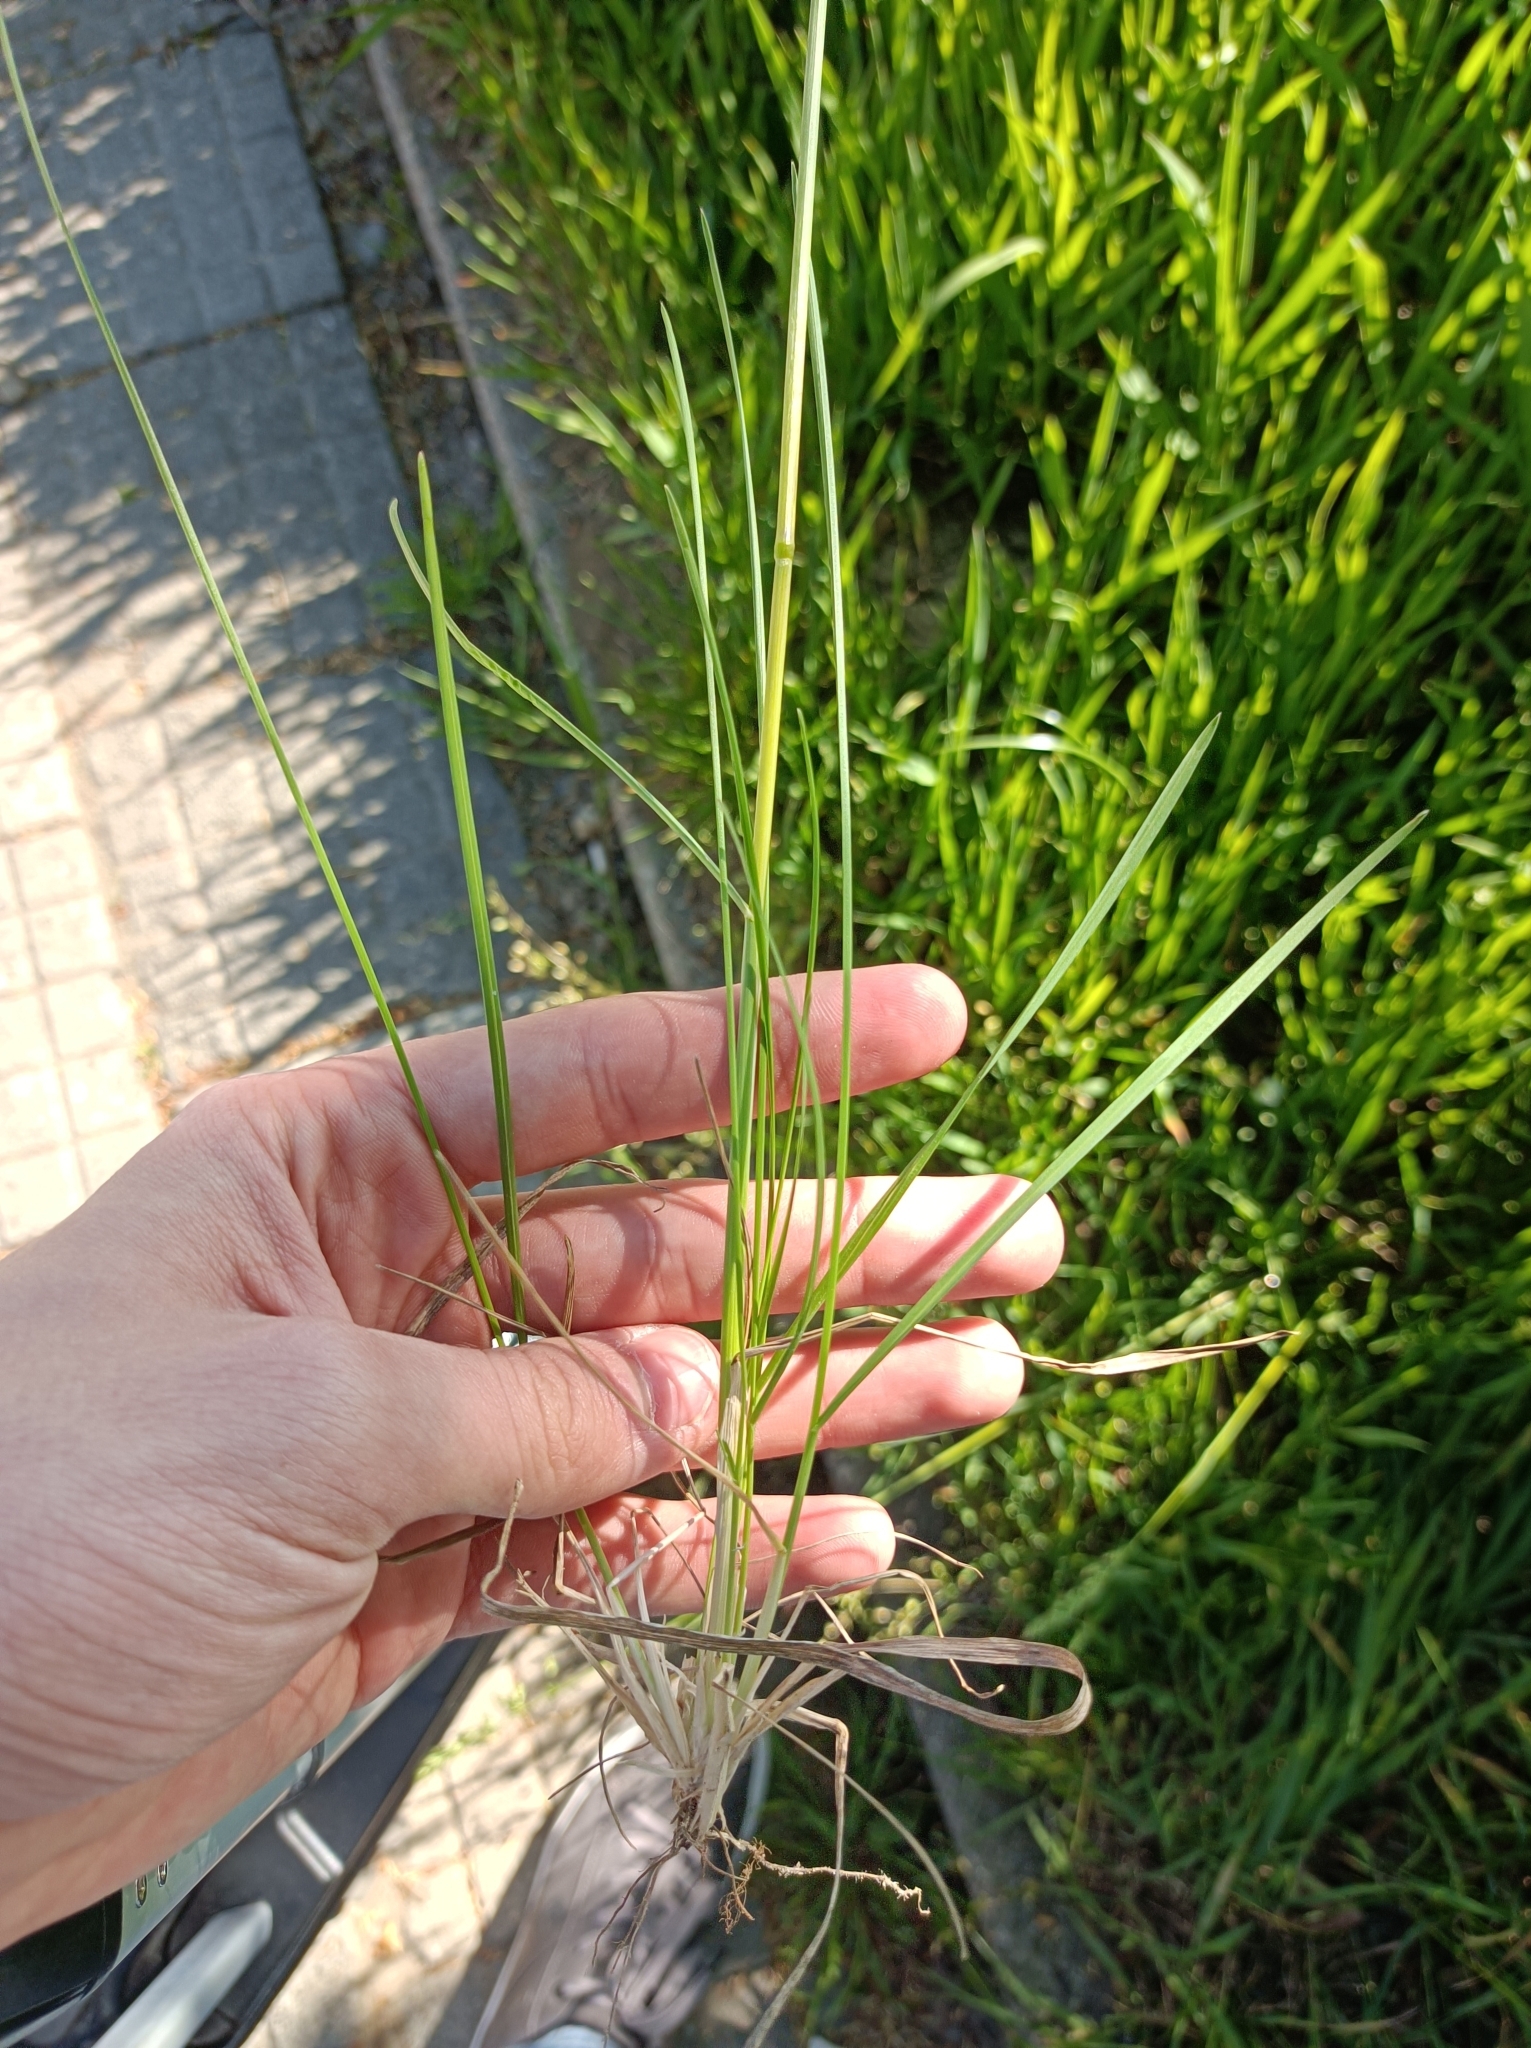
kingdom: Plantae
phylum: Tracheophyta
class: Liliopsida
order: Poales
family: Poaceae
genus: Poa
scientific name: Poa angustifolia
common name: Narrow-leaved meadow-grass
